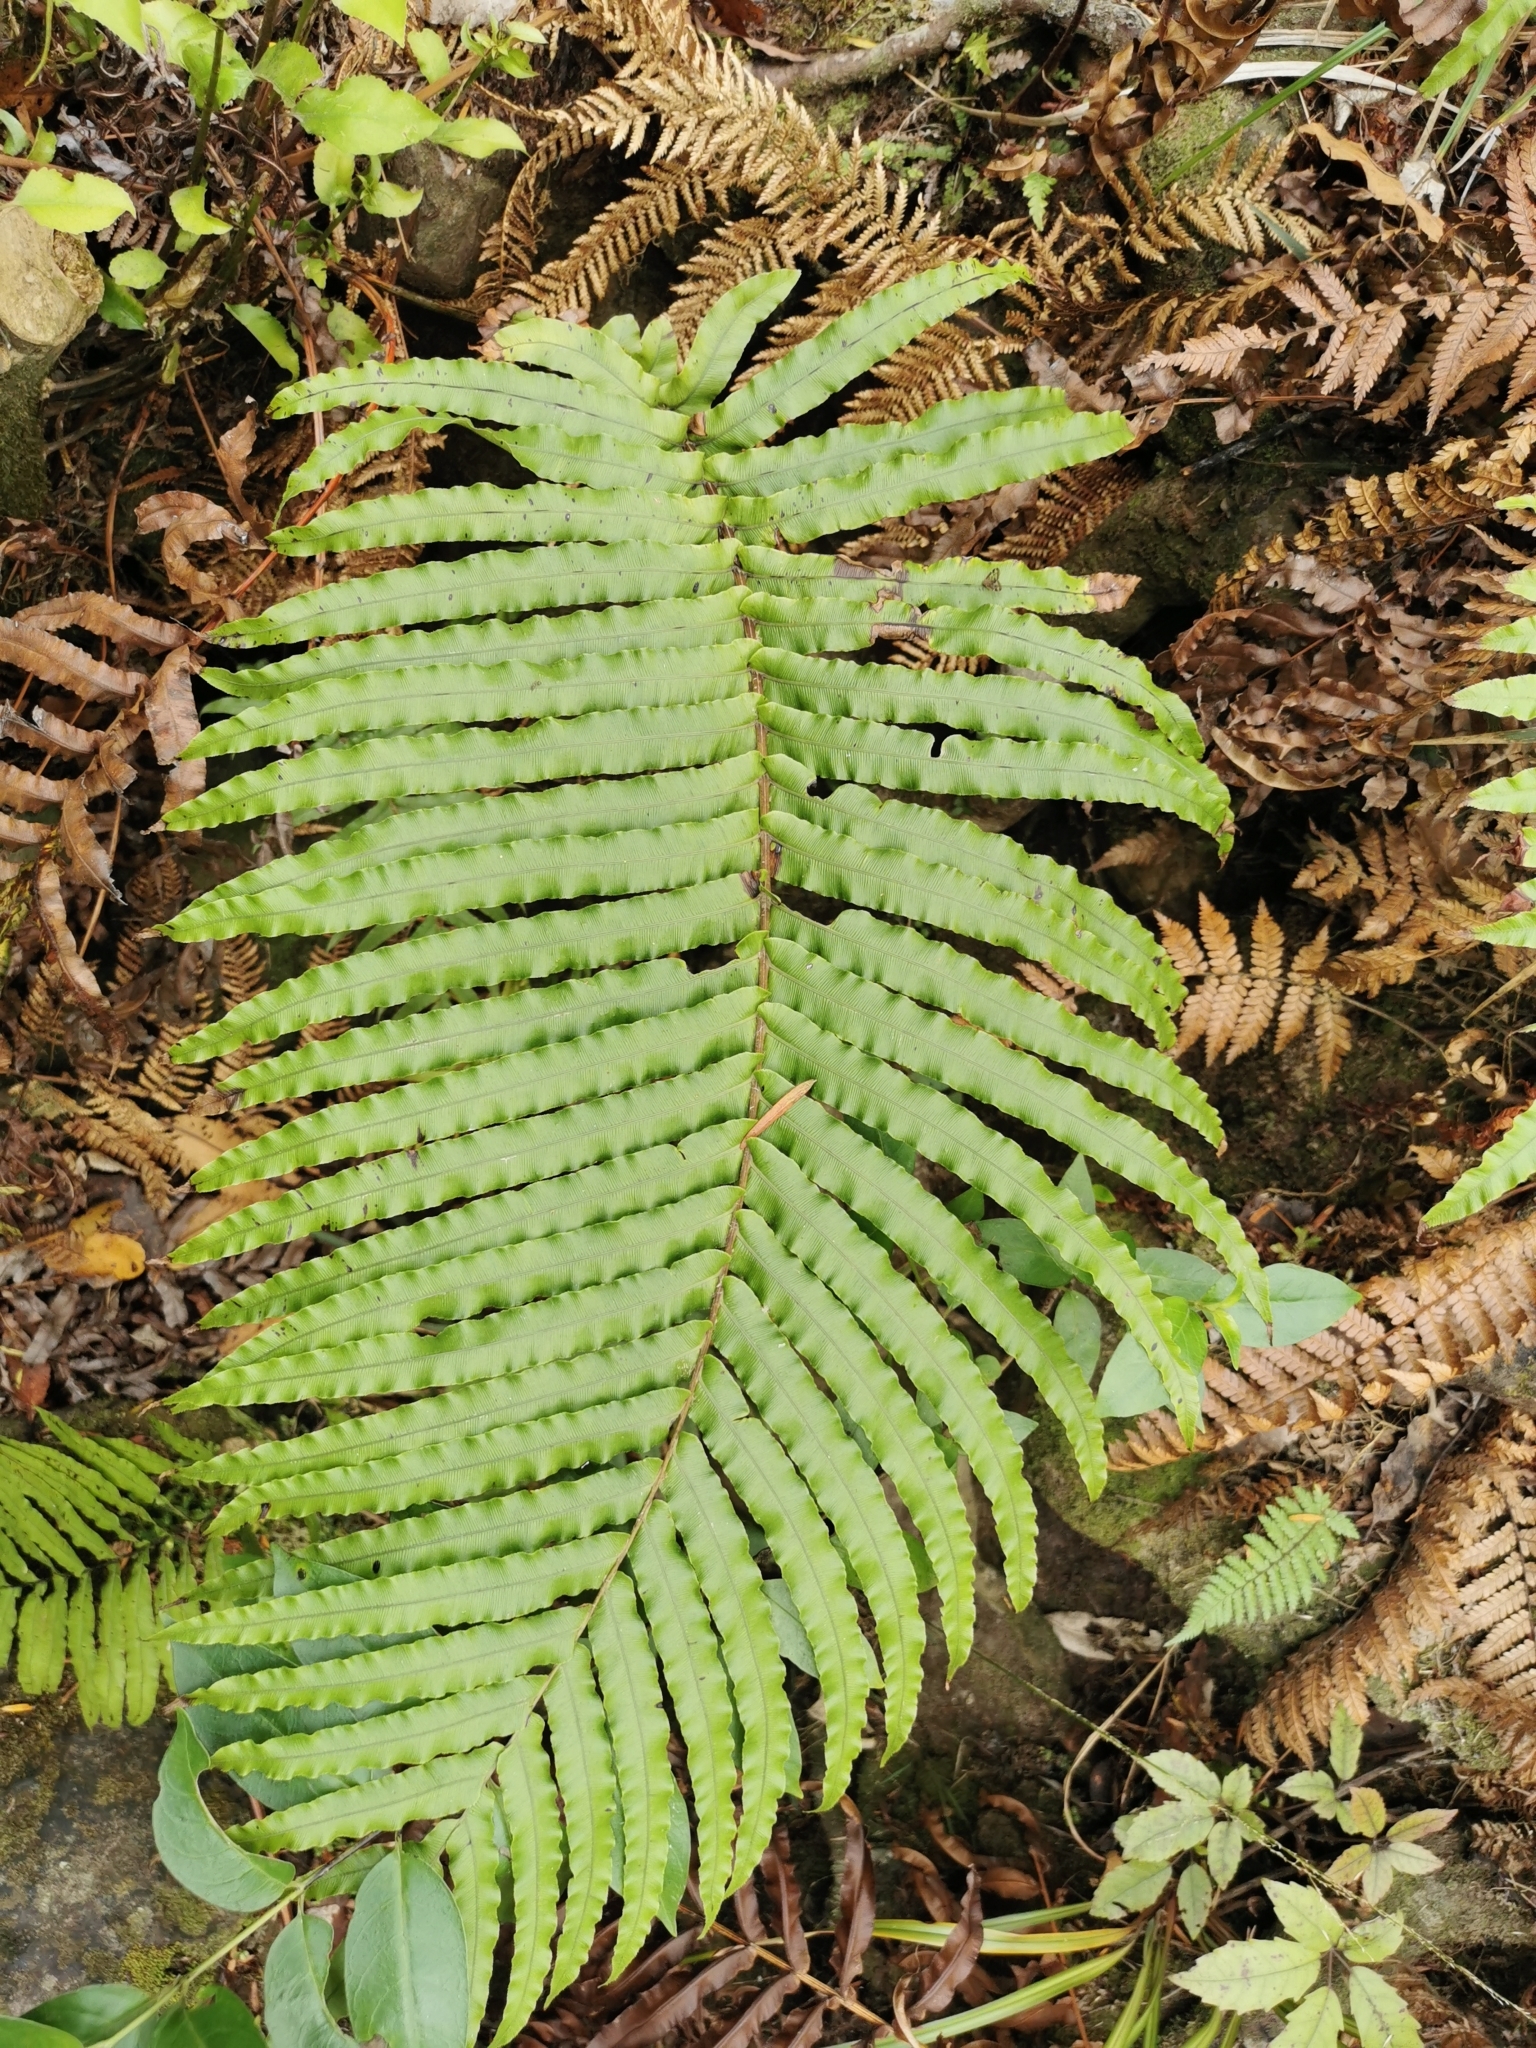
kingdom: Plantae
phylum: Tracheophyta
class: Polypodiopsida
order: Polypodiales
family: Blechnaceae
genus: Parablechnum
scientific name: Parablechnum novae-zelandiae
